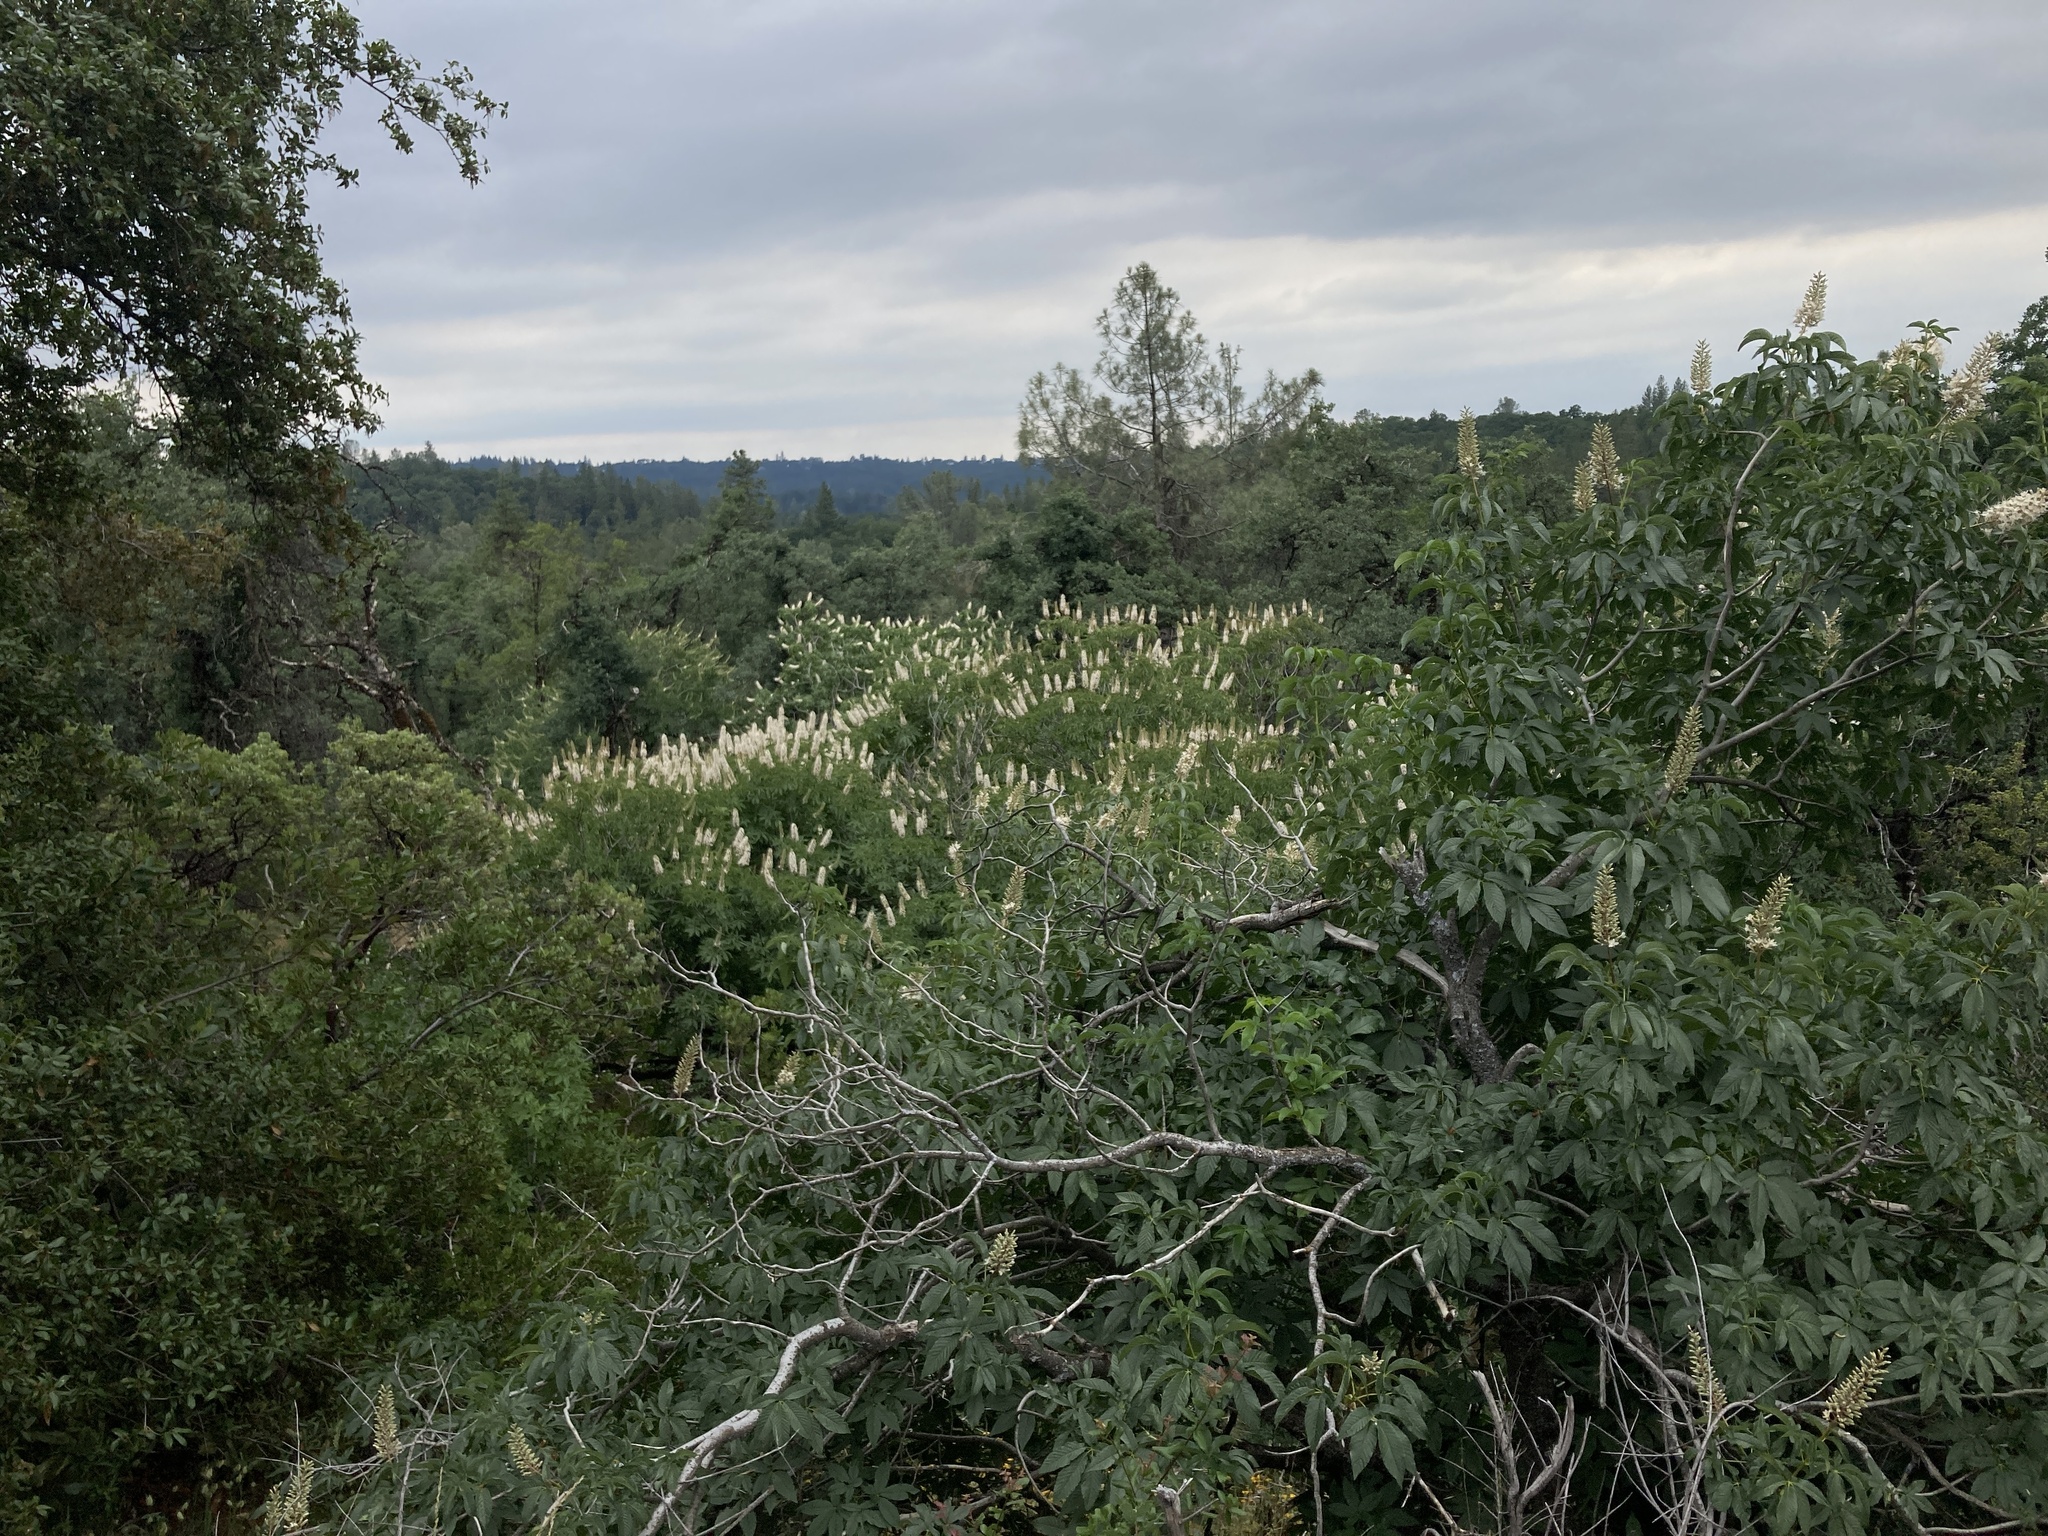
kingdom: Plantae
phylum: Tracheophyta
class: Magnoliopsida
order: Sapindales
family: Sapindaceae
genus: Aesculus
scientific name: Aesculus californica
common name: California buckeye
